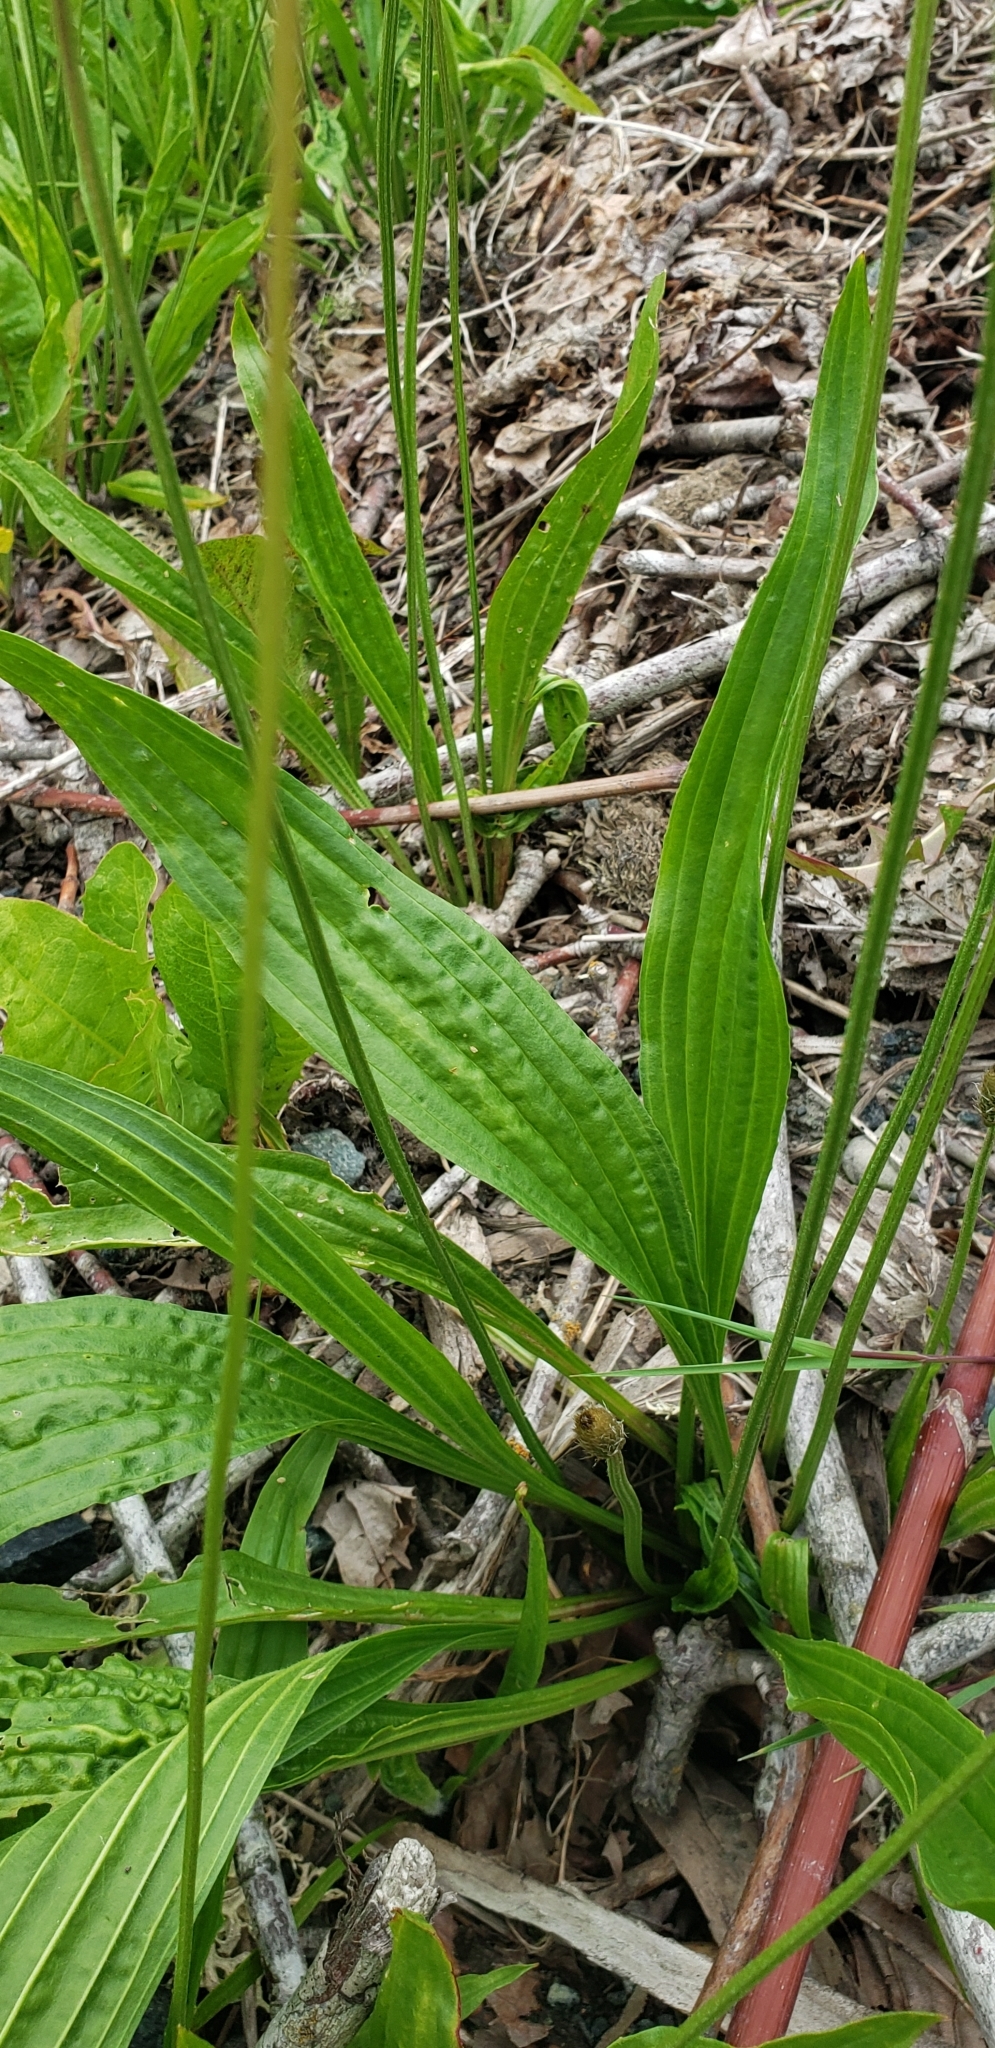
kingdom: Plantae
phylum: Tracheophyta
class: Magnoliopsida
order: Lamiales
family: Plantaginaceae
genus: Plantago
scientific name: Plantago lanceolata
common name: Ribwort plantain
